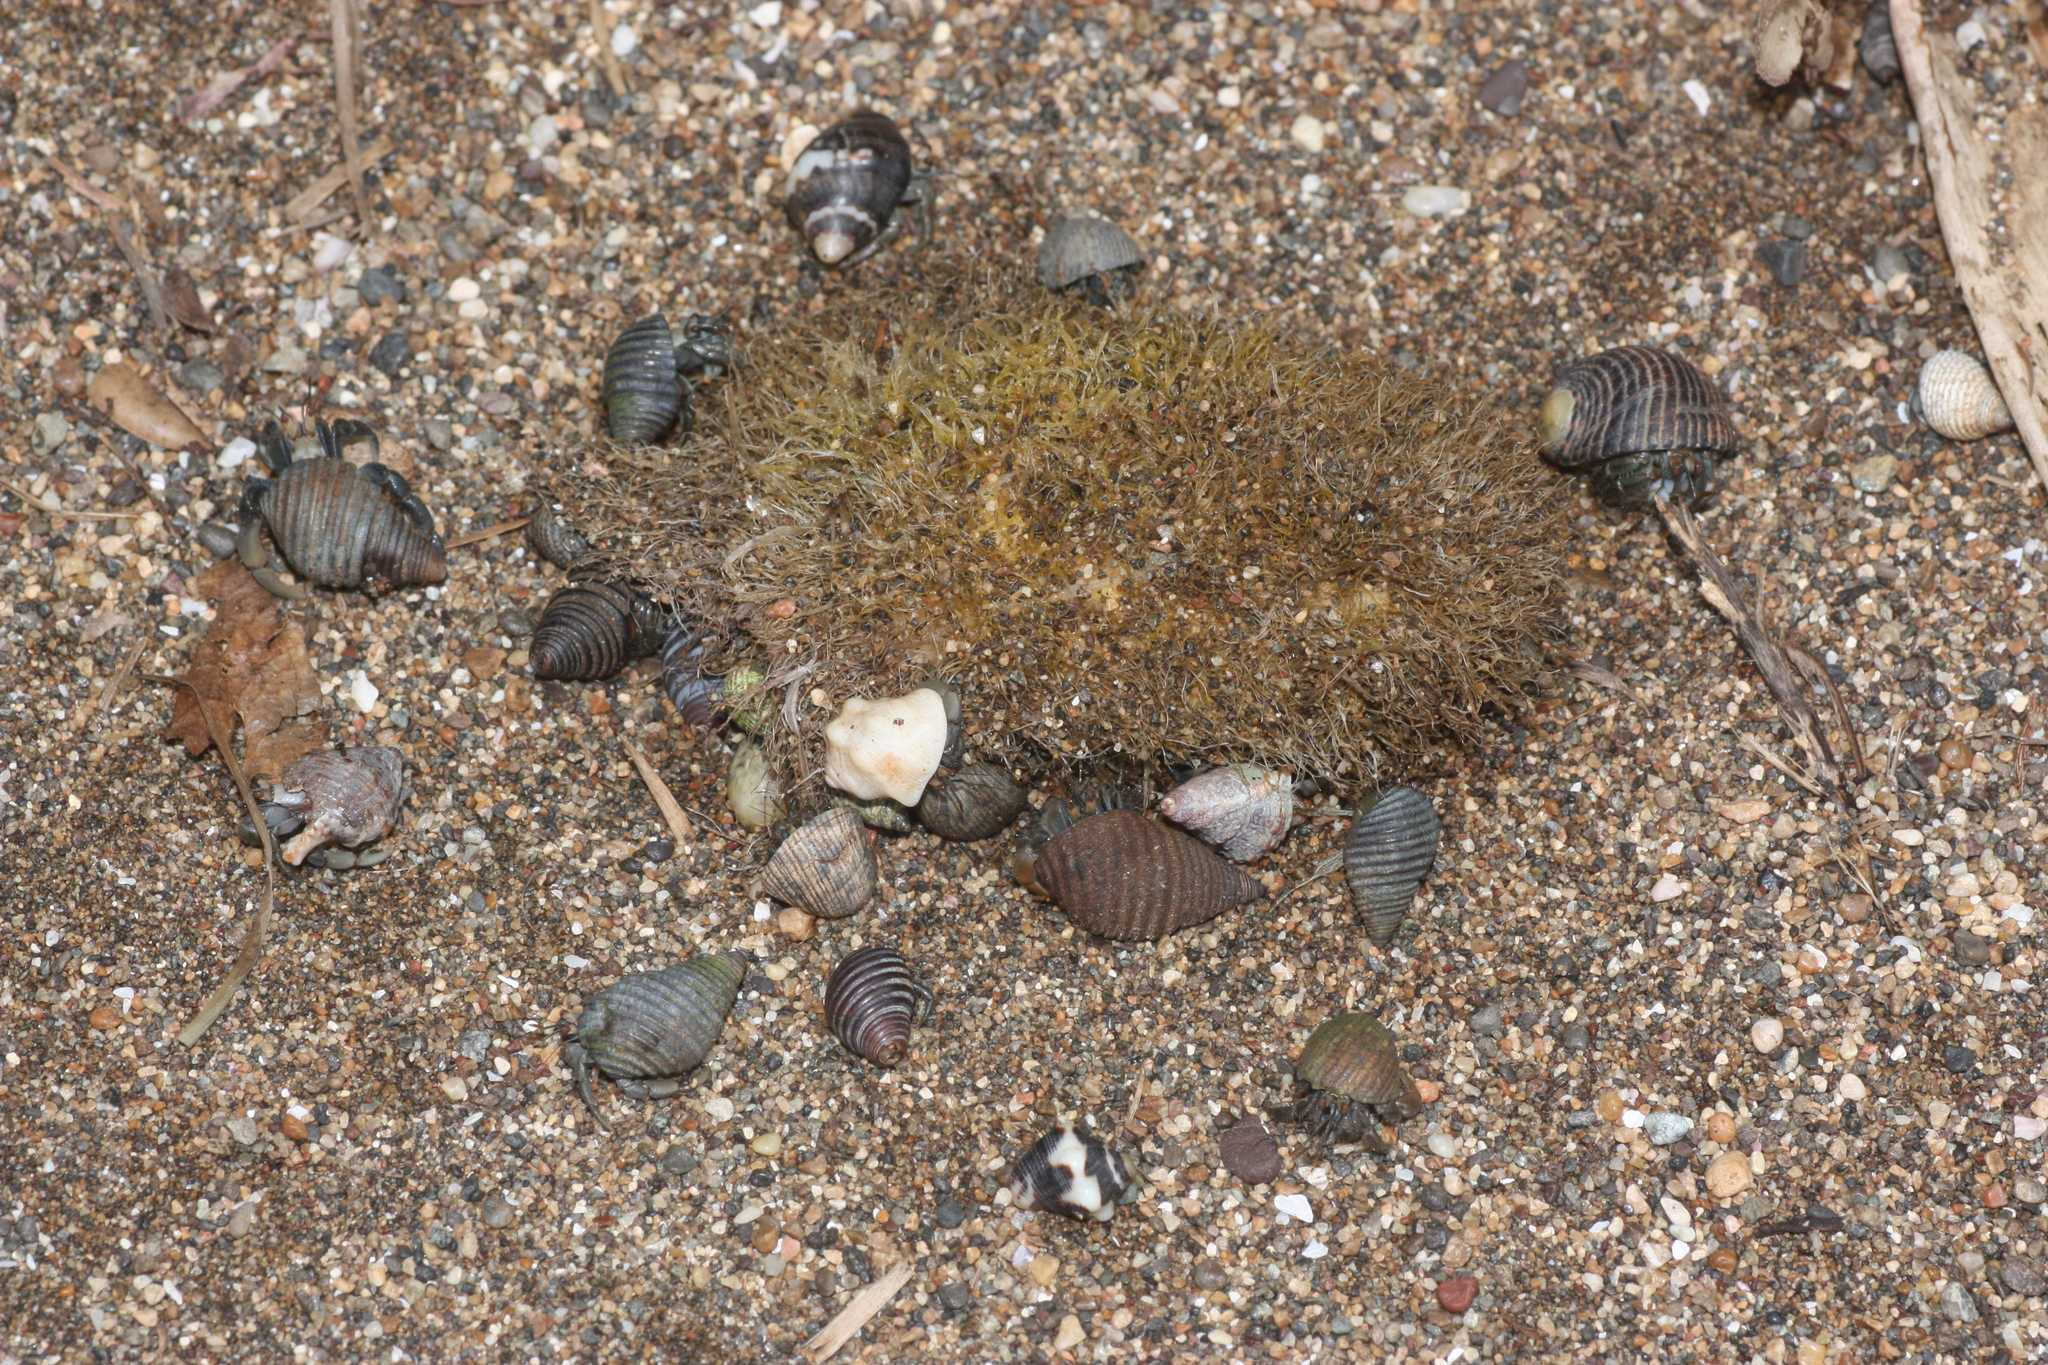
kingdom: Animalia
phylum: Arthropoda
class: Malacostraca
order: Decapoda
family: Coenobitidae
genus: Coenobita
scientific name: Coenobita compressus
